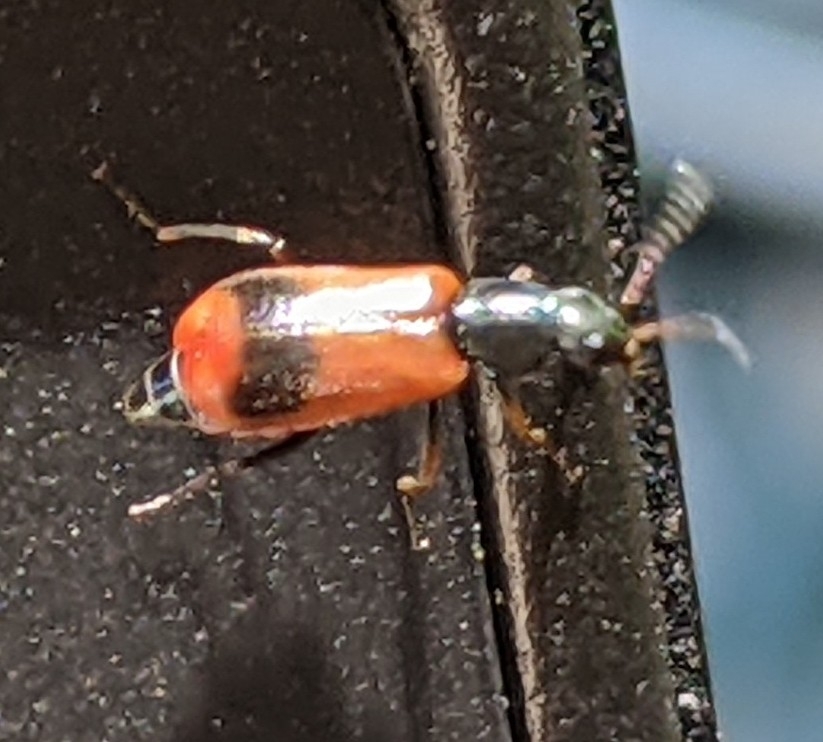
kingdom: Animalia
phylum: Arthropoda
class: Insecta
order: Coleoptera
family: Melyridae
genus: Anthocomus
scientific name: Anthocomus equestris
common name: Black-banded soft-winged flower beetle
